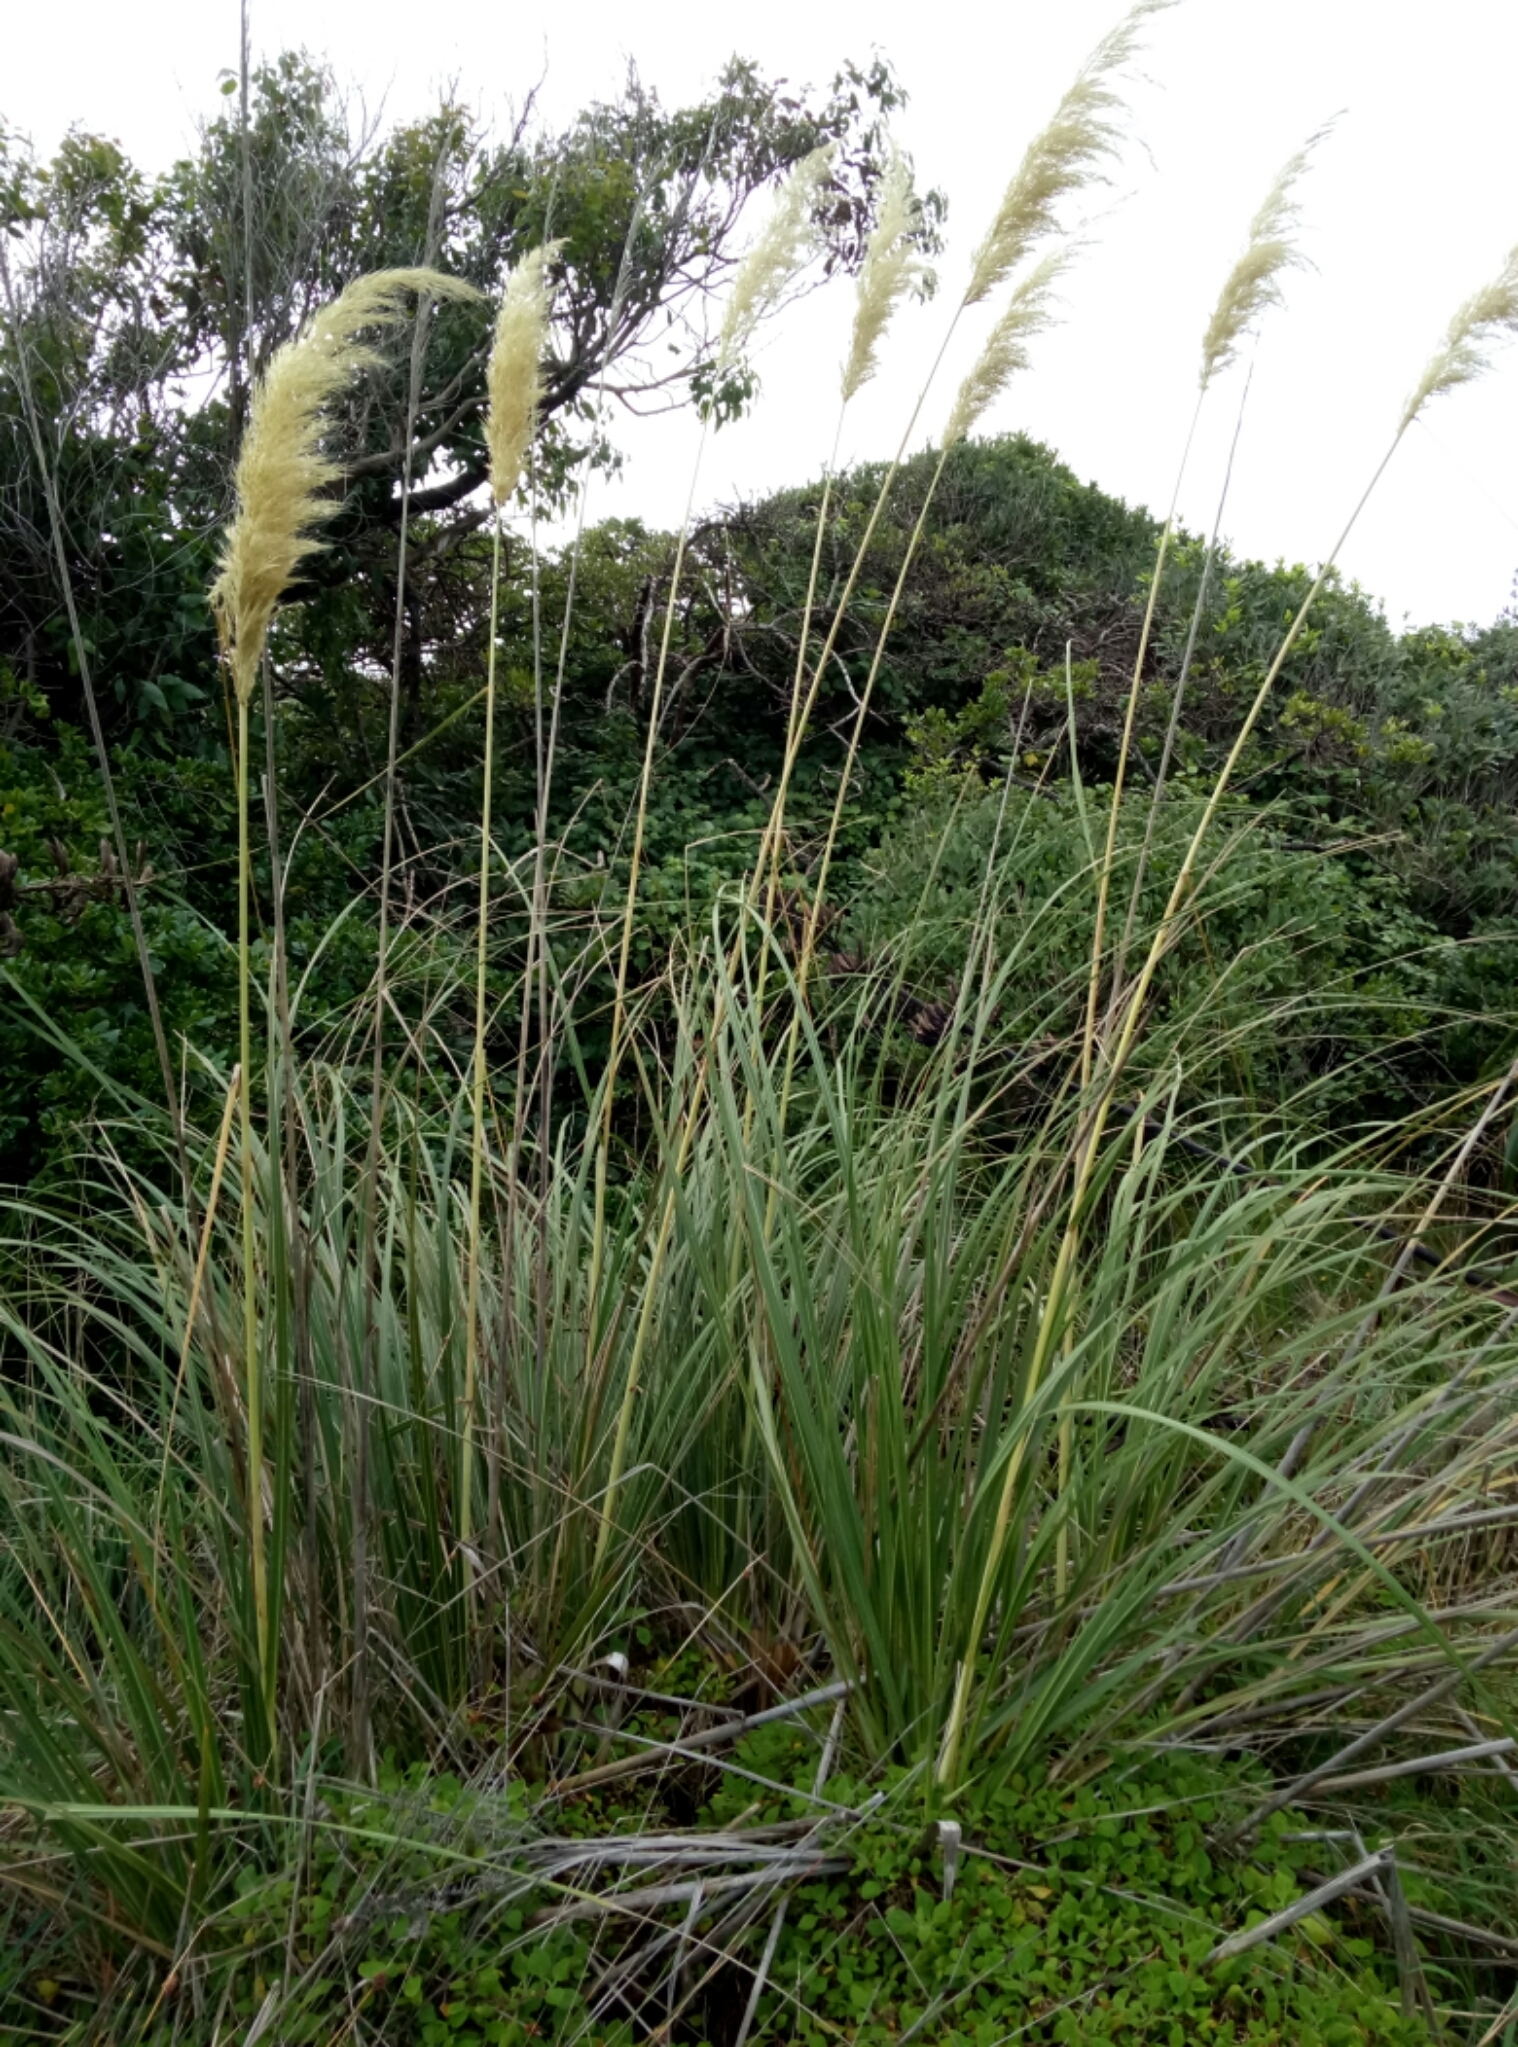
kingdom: Plantae
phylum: Tracheophyta
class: Liliopsida
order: Poales
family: Poaceae
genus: Austroderia
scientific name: Austroderia toetoe
